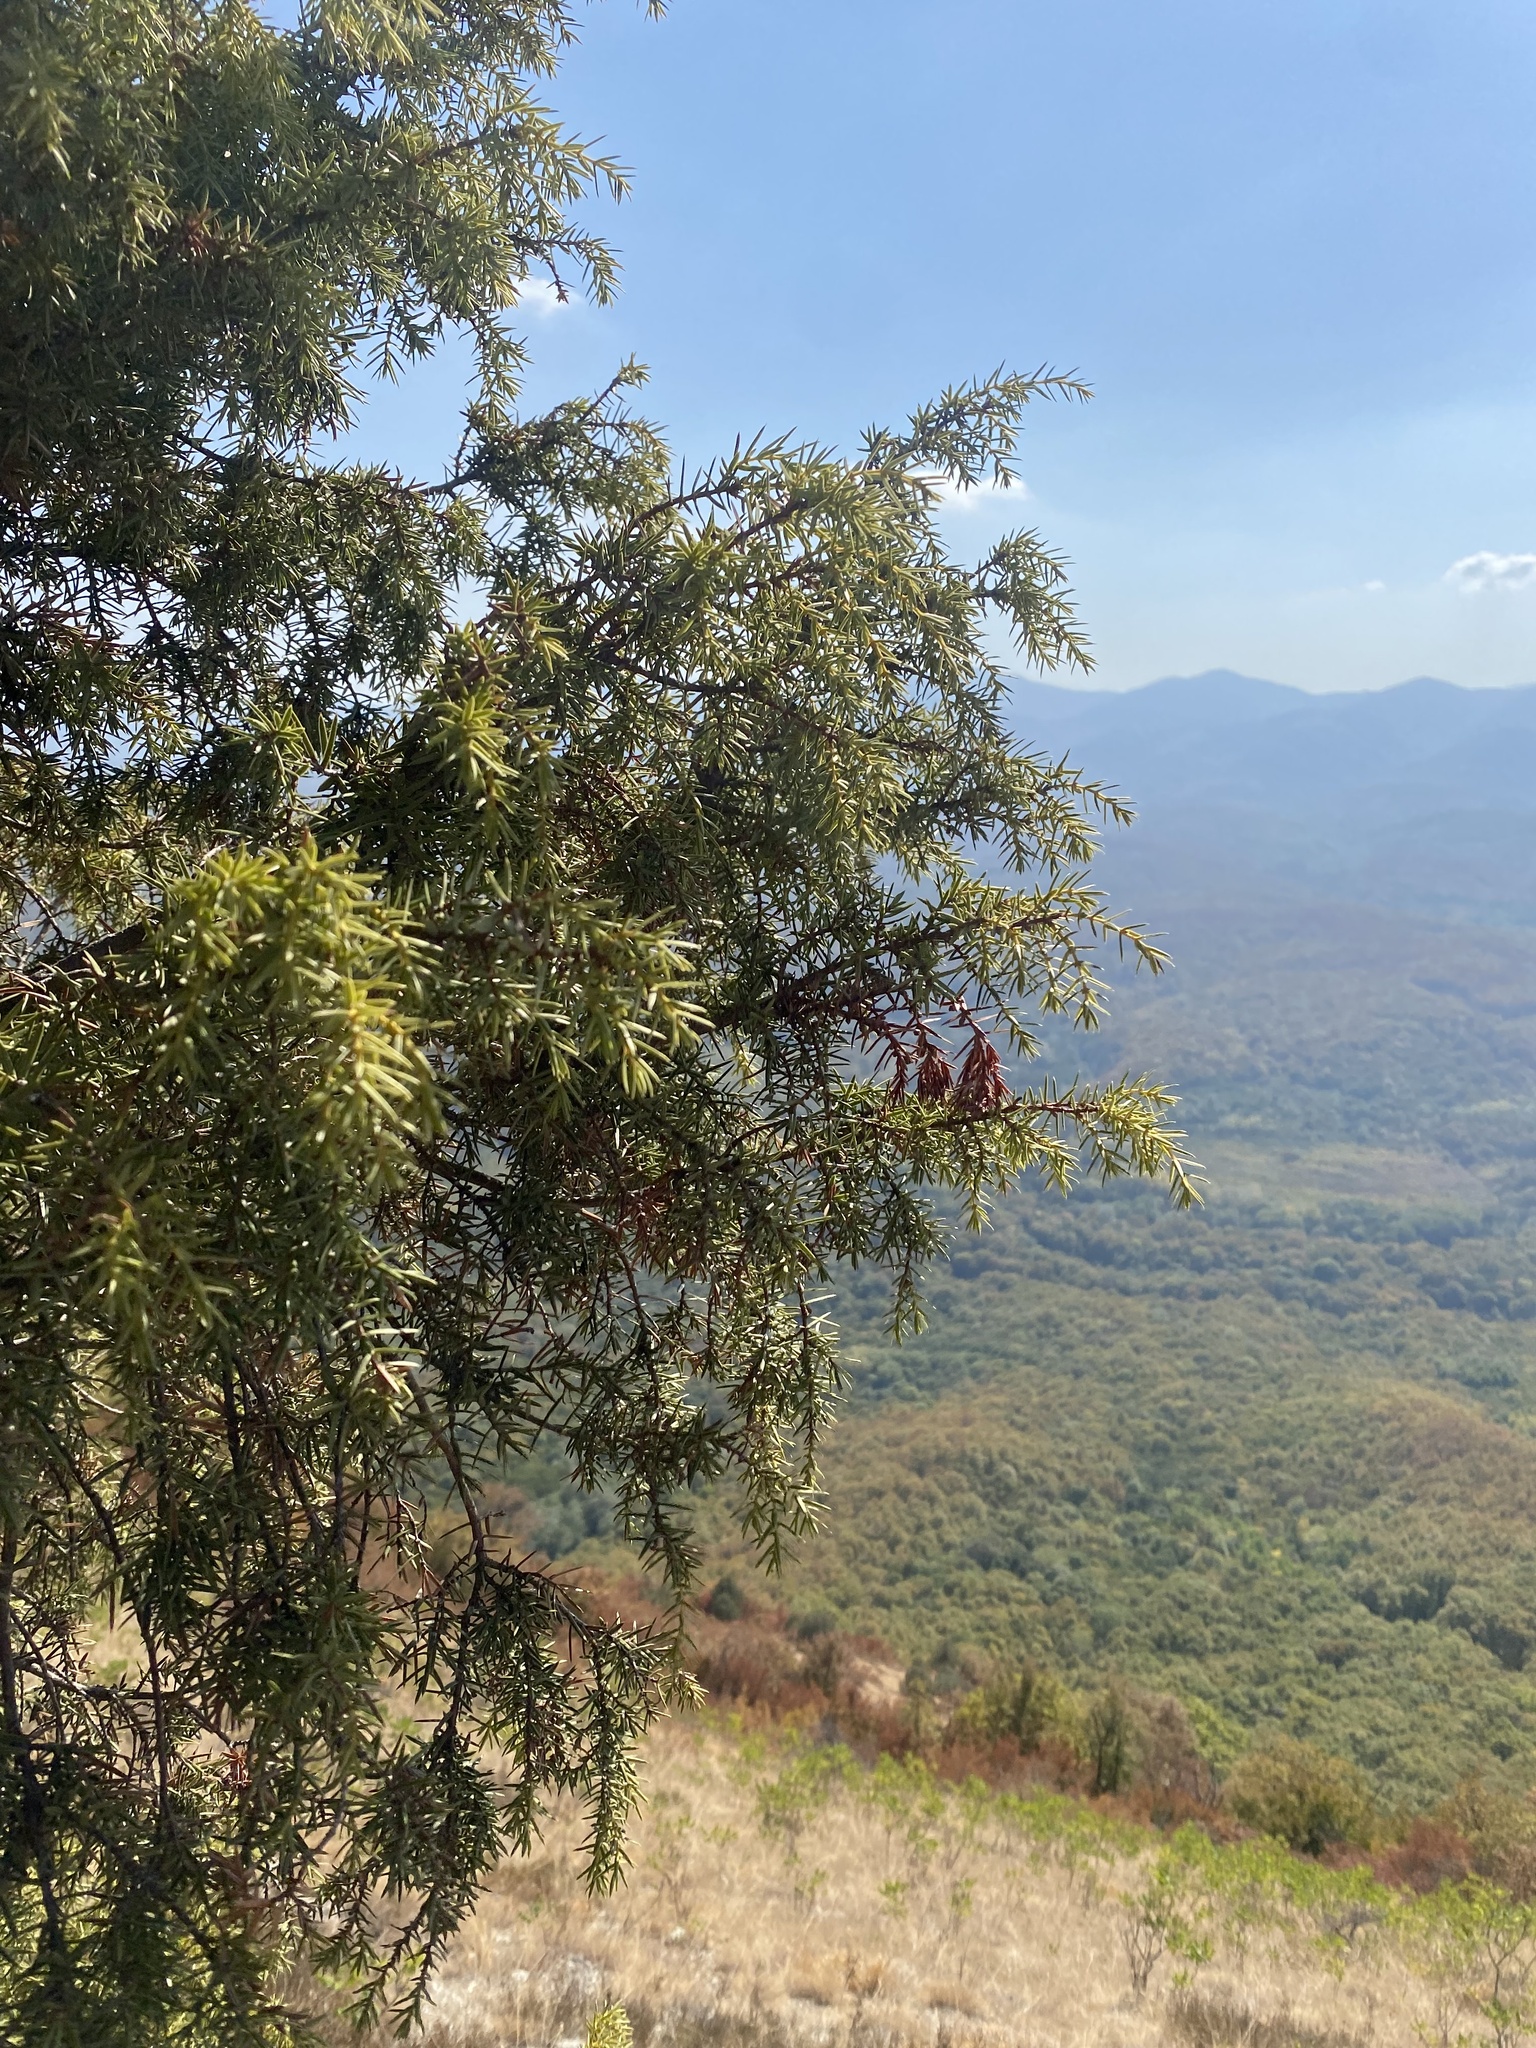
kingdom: Plantae
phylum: Tracheophyta
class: Pinopsida
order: Pinales
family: Cupressaceae
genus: Juniperus
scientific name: Juniperus oxycedrus
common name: Prickly juniper
